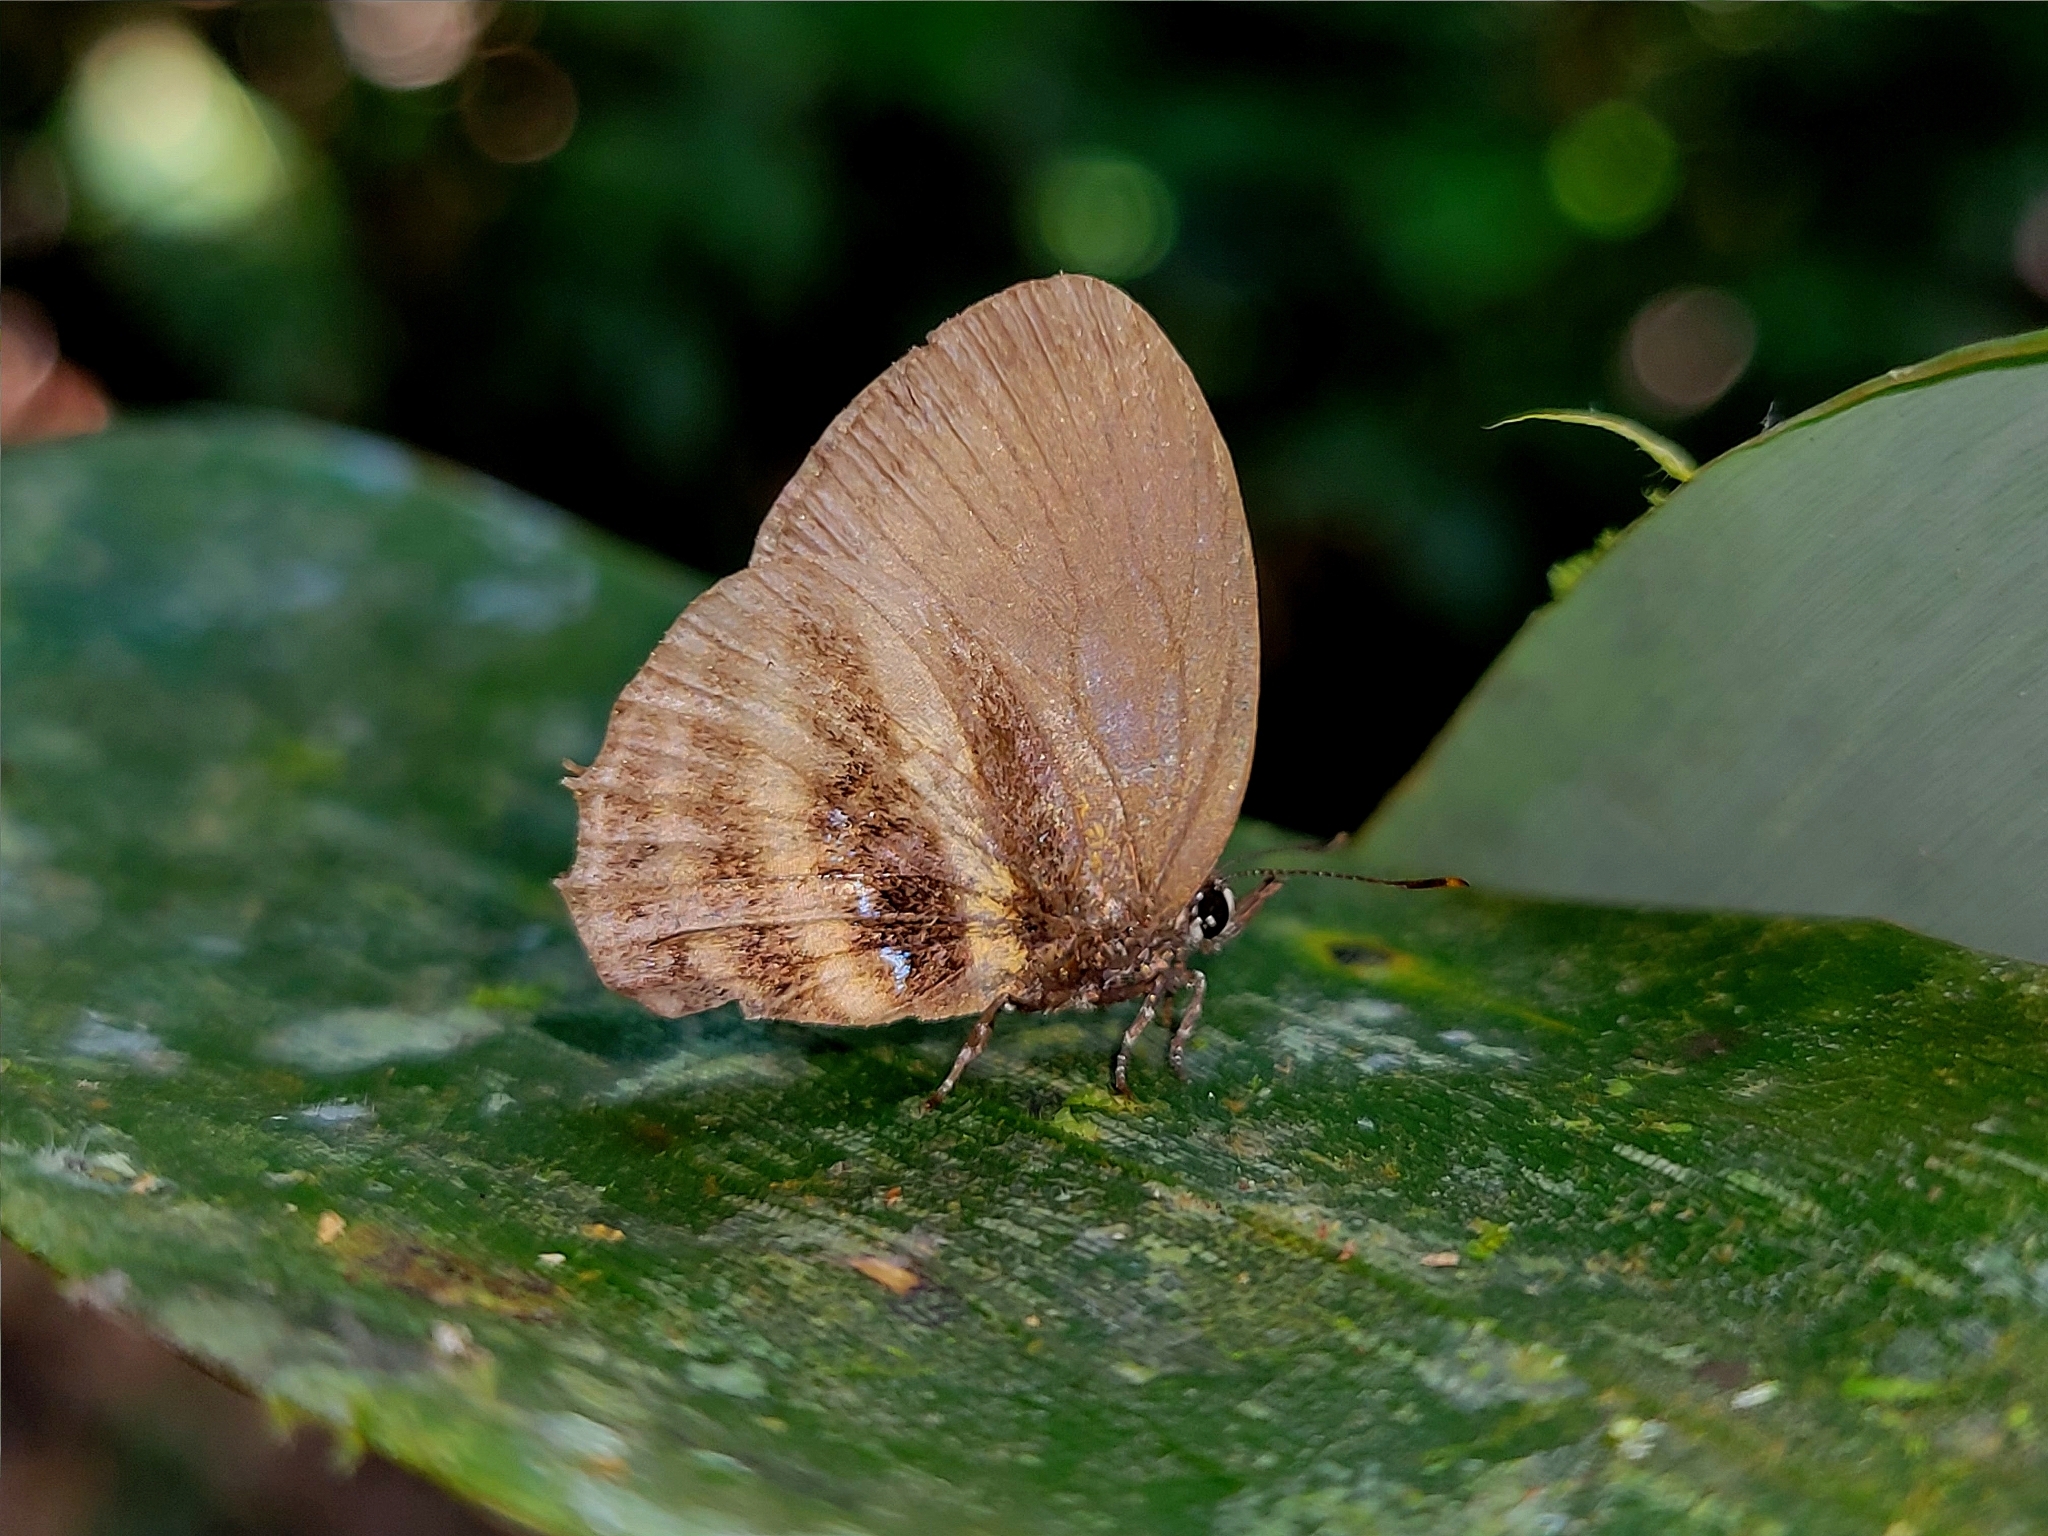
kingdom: Animalia
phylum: Arthropoda
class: Insecta
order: Lepidoptera
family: Lycaenidae
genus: Thestius
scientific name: Thestius
